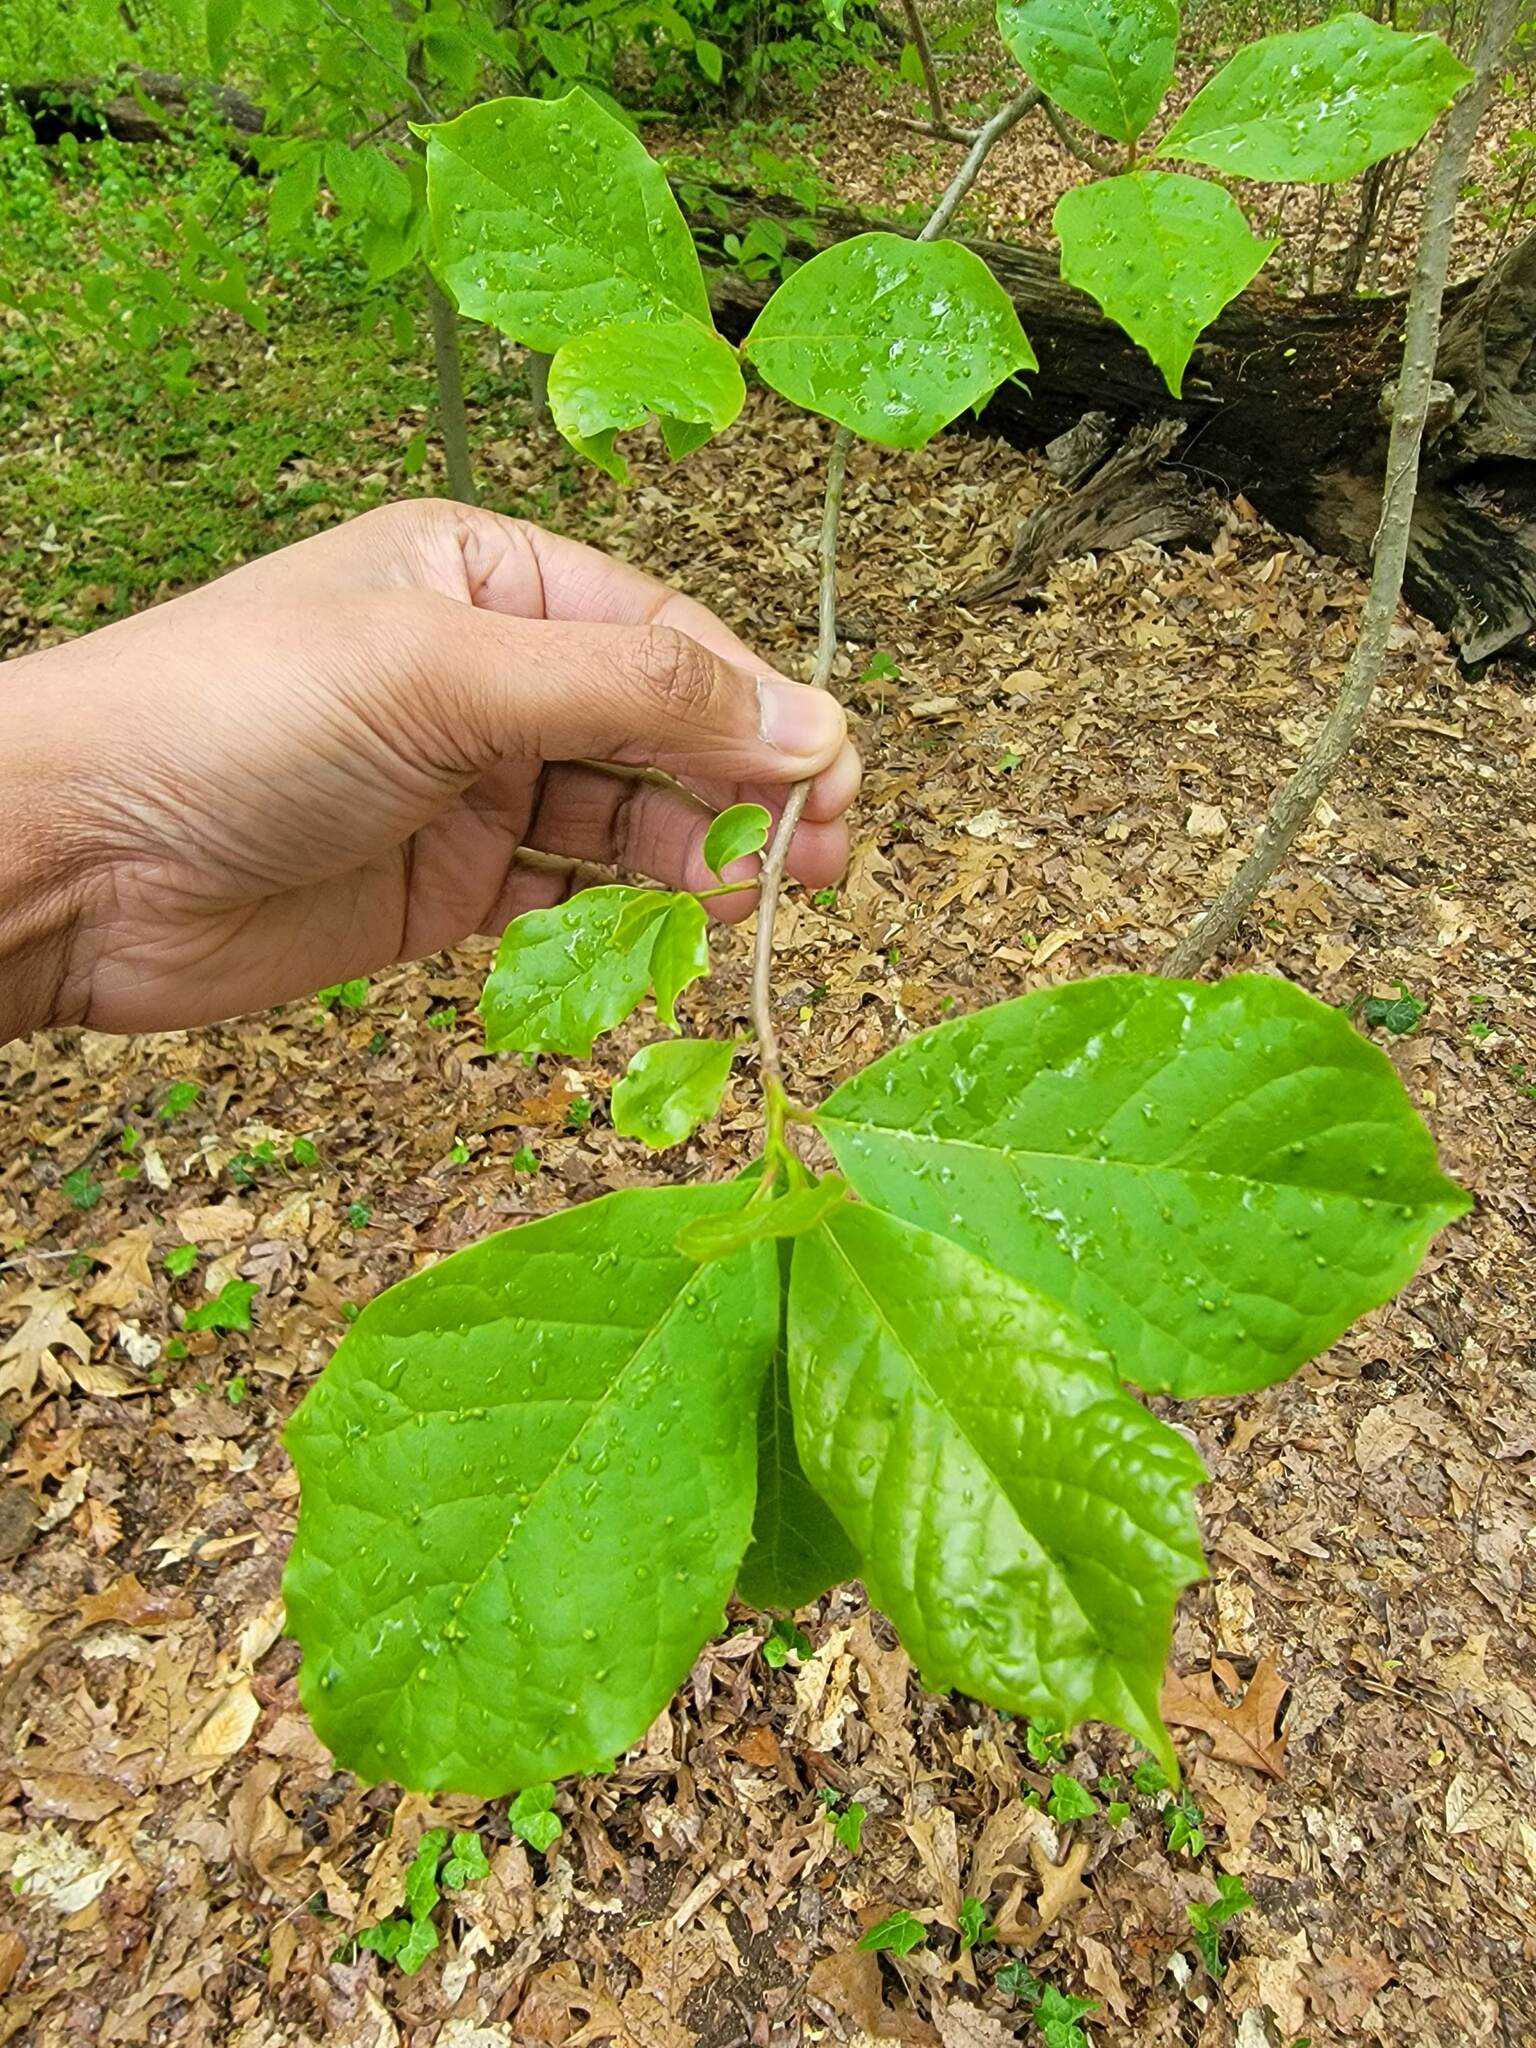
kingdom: Plantae
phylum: Tracheophyta
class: Magnoliopsida
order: Cornales
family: Nyssaceae
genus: Nyssa
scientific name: Nyssa sylvatica
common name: Black tupelo
